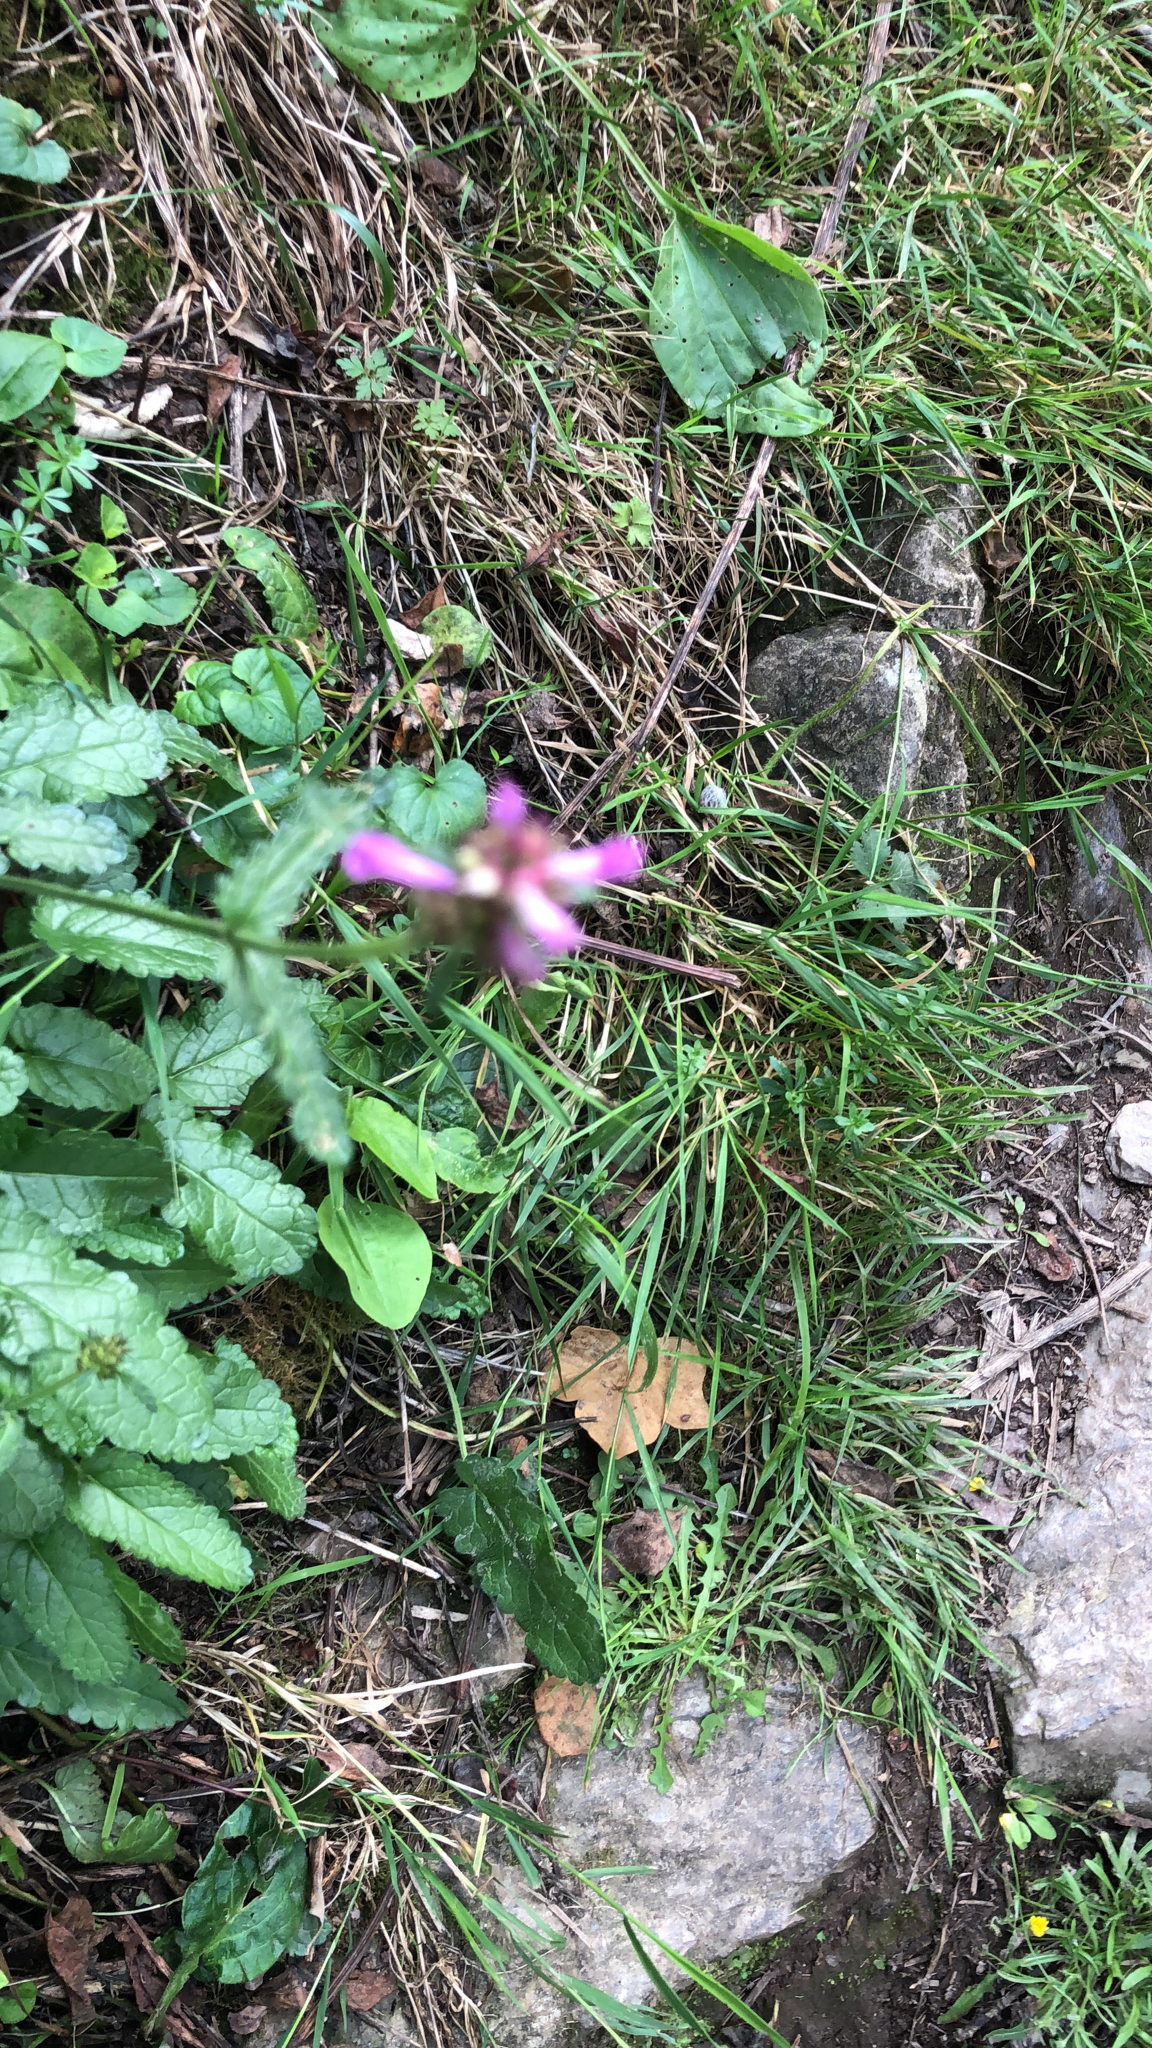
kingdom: Plantae
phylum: Tracheophyta
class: Magnoliopsida
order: Lamiales
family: Lamiaceae
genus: Betonica
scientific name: Betonica officinalis
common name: Bishop's-wort
